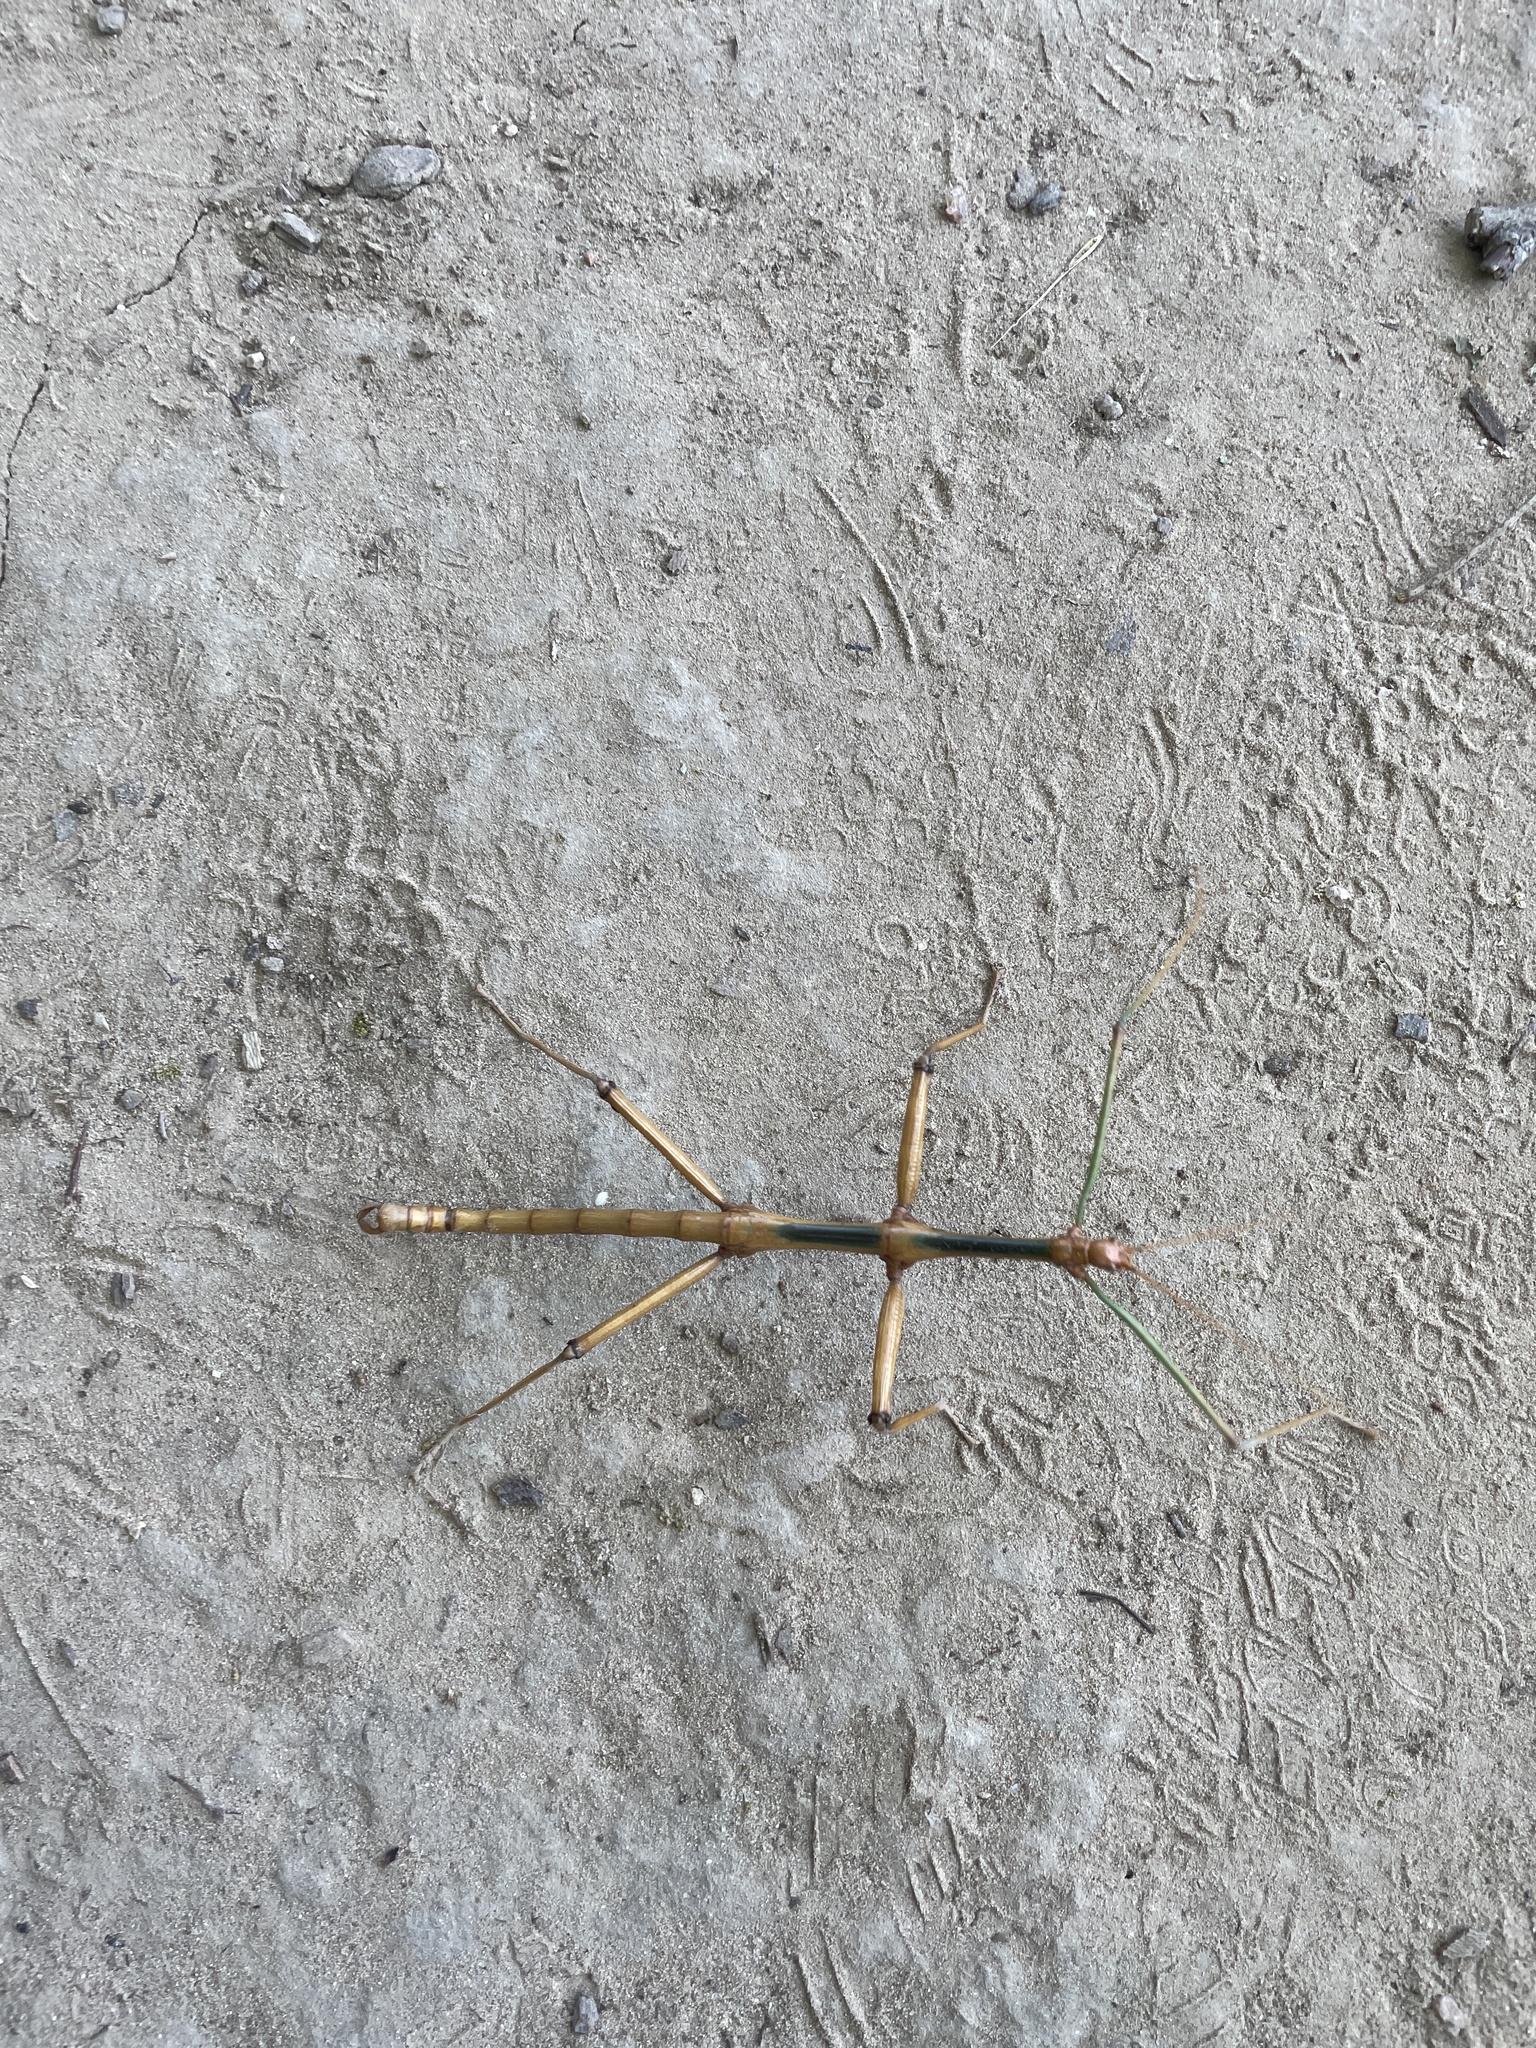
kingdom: Animalia
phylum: Arthropoda
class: Insecta
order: Phasmida
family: Diapheromeridae
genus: Megaphasma
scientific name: Megaphasma denticrus
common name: Giant walkingstick
